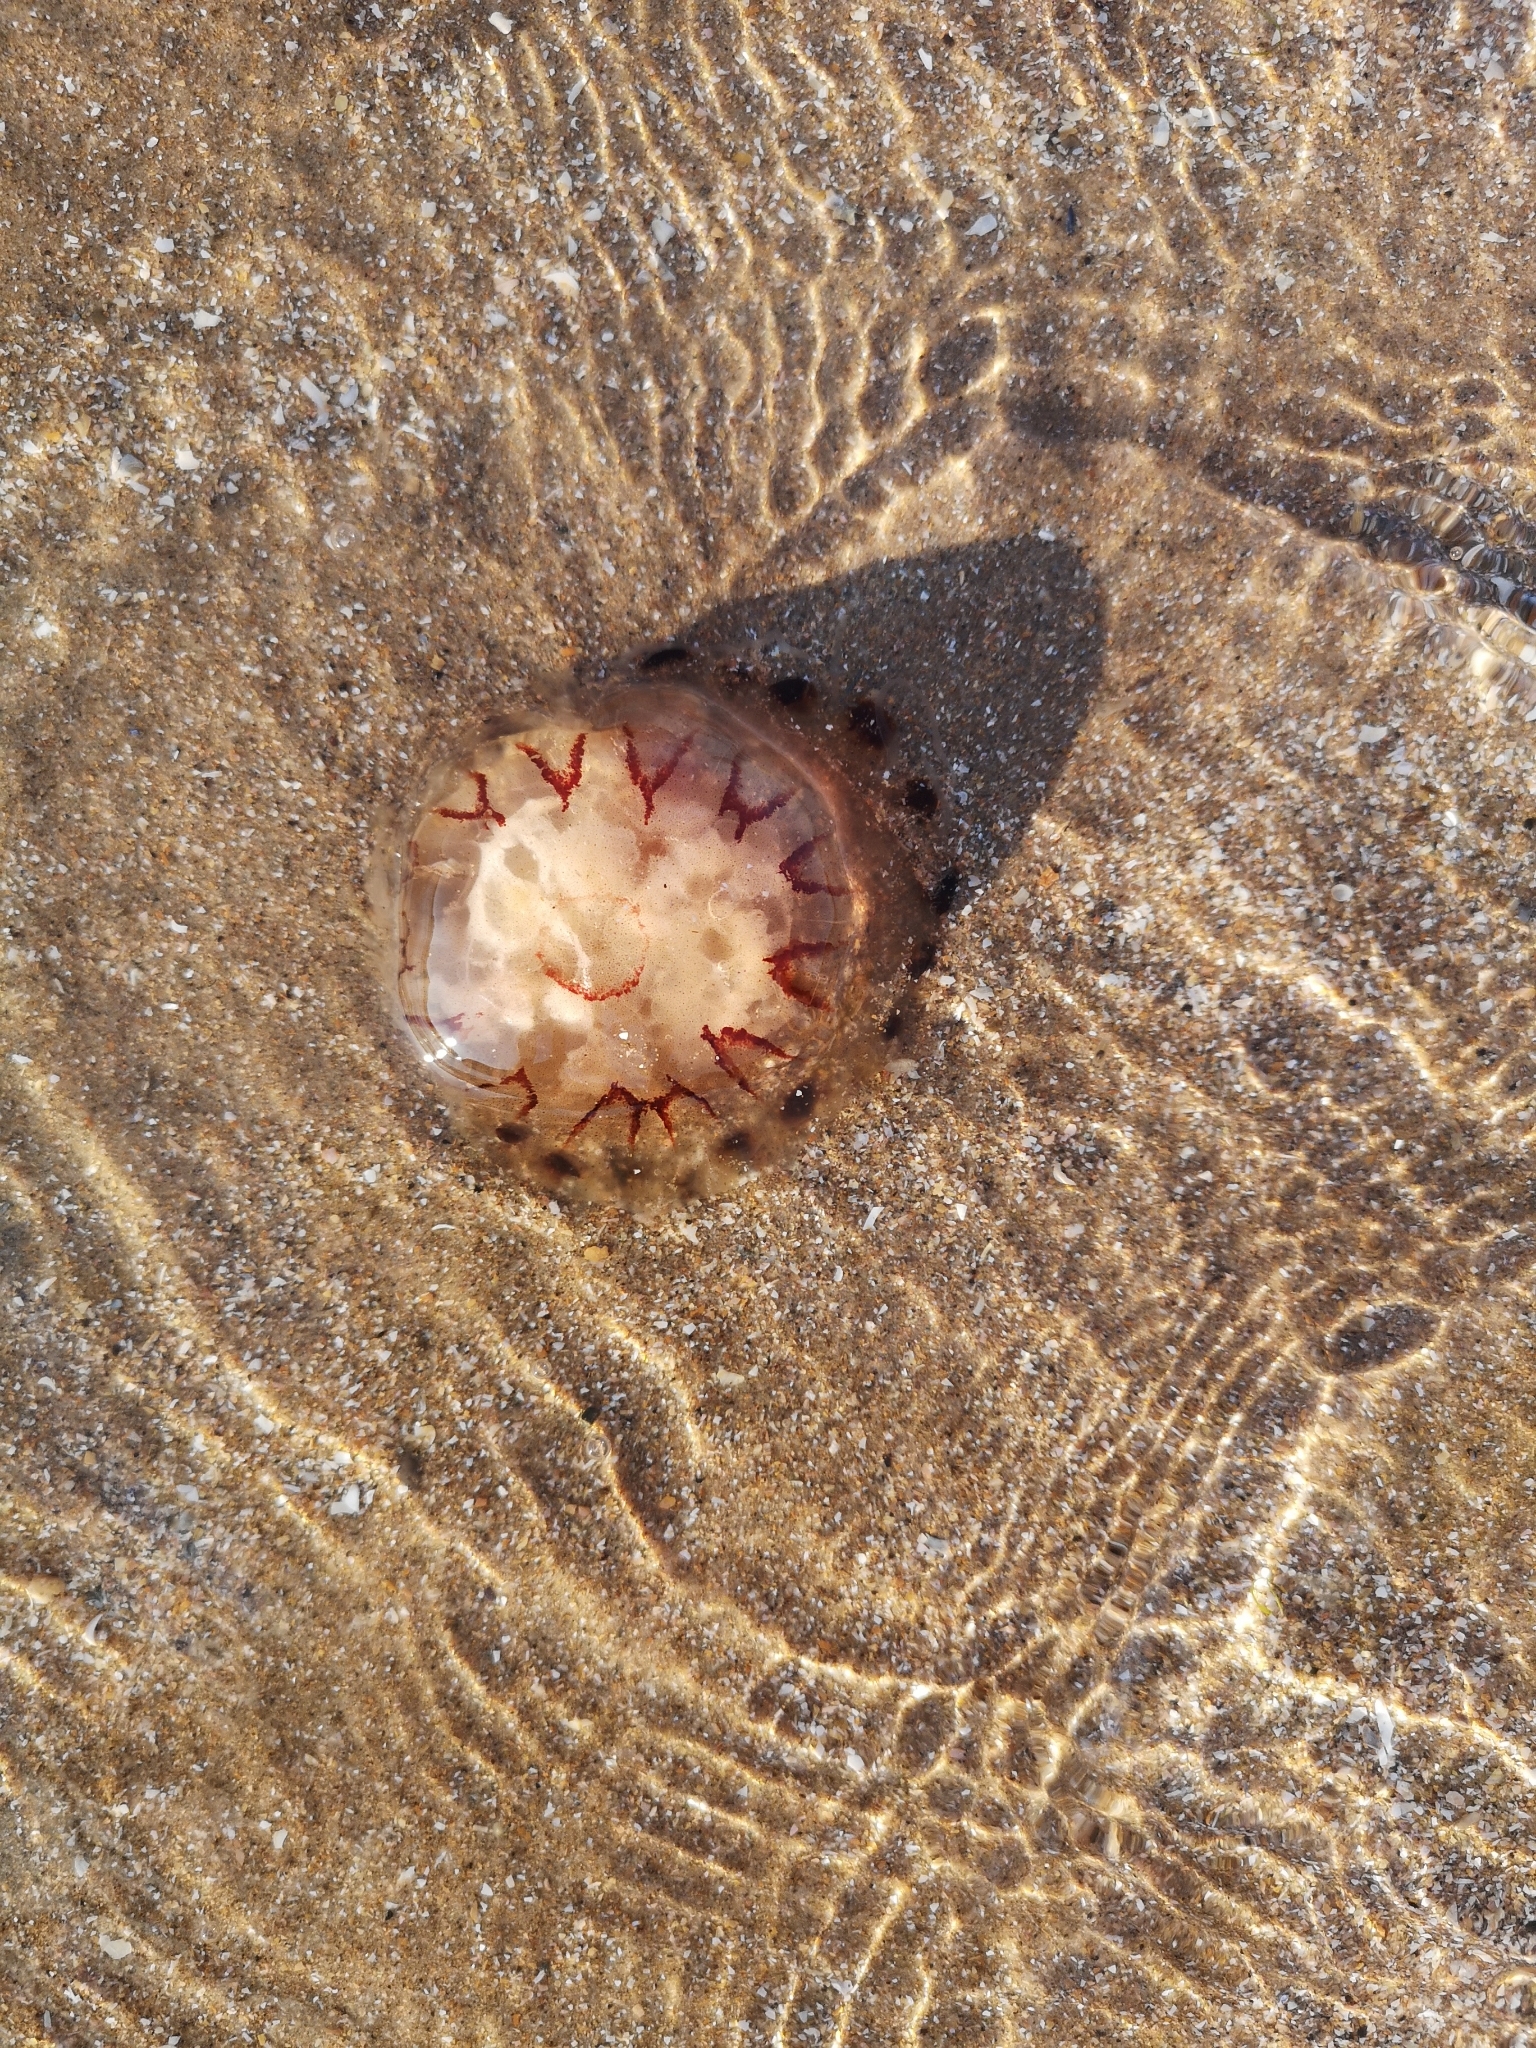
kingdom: Animalia
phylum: Cnidaria
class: Scyphozoa
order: Semaeostomeae
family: Pelagiidae
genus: Chrysaora
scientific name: Chrysaora hysoscella
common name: Compass jellyfish
